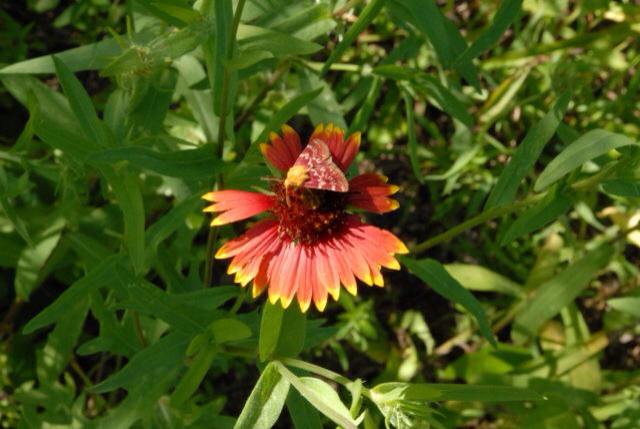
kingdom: Animalia
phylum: Arthropoda
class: Insecta
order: Lepidoptera
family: Noctuidae
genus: Schinia
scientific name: Schinia volupia
